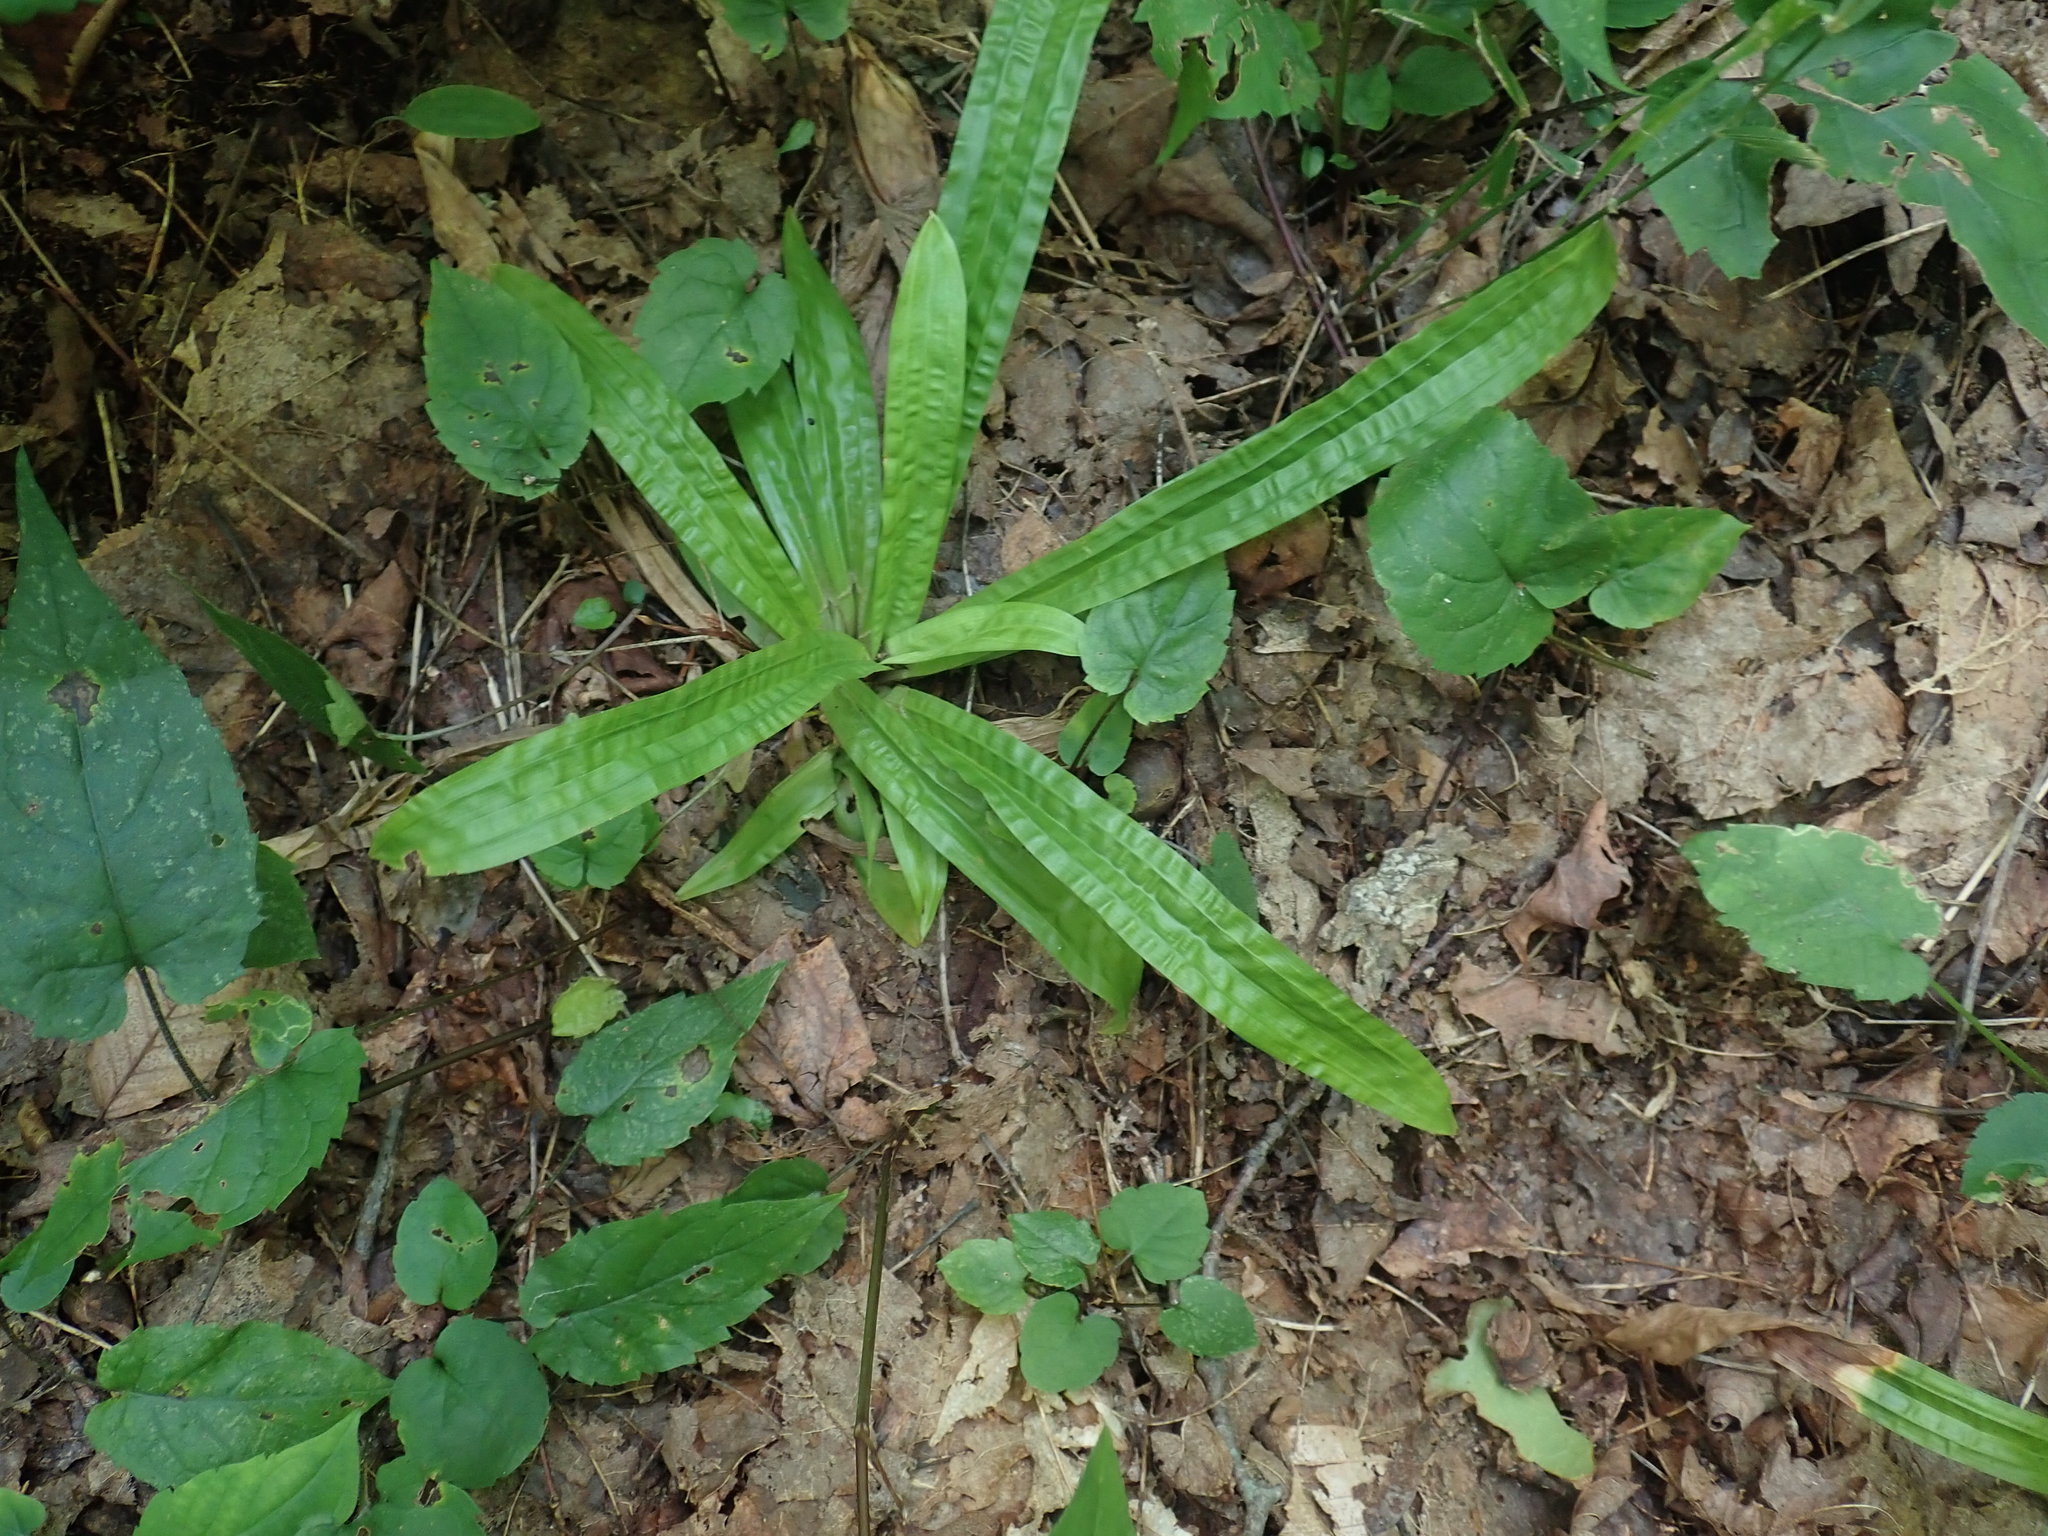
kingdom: Plantae
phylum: Tracheophyta
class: Liliopsida
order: Poales
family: Cyperaceae
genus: Carex
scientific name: Carex plantaginea
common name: Plantain-leaved sedge
